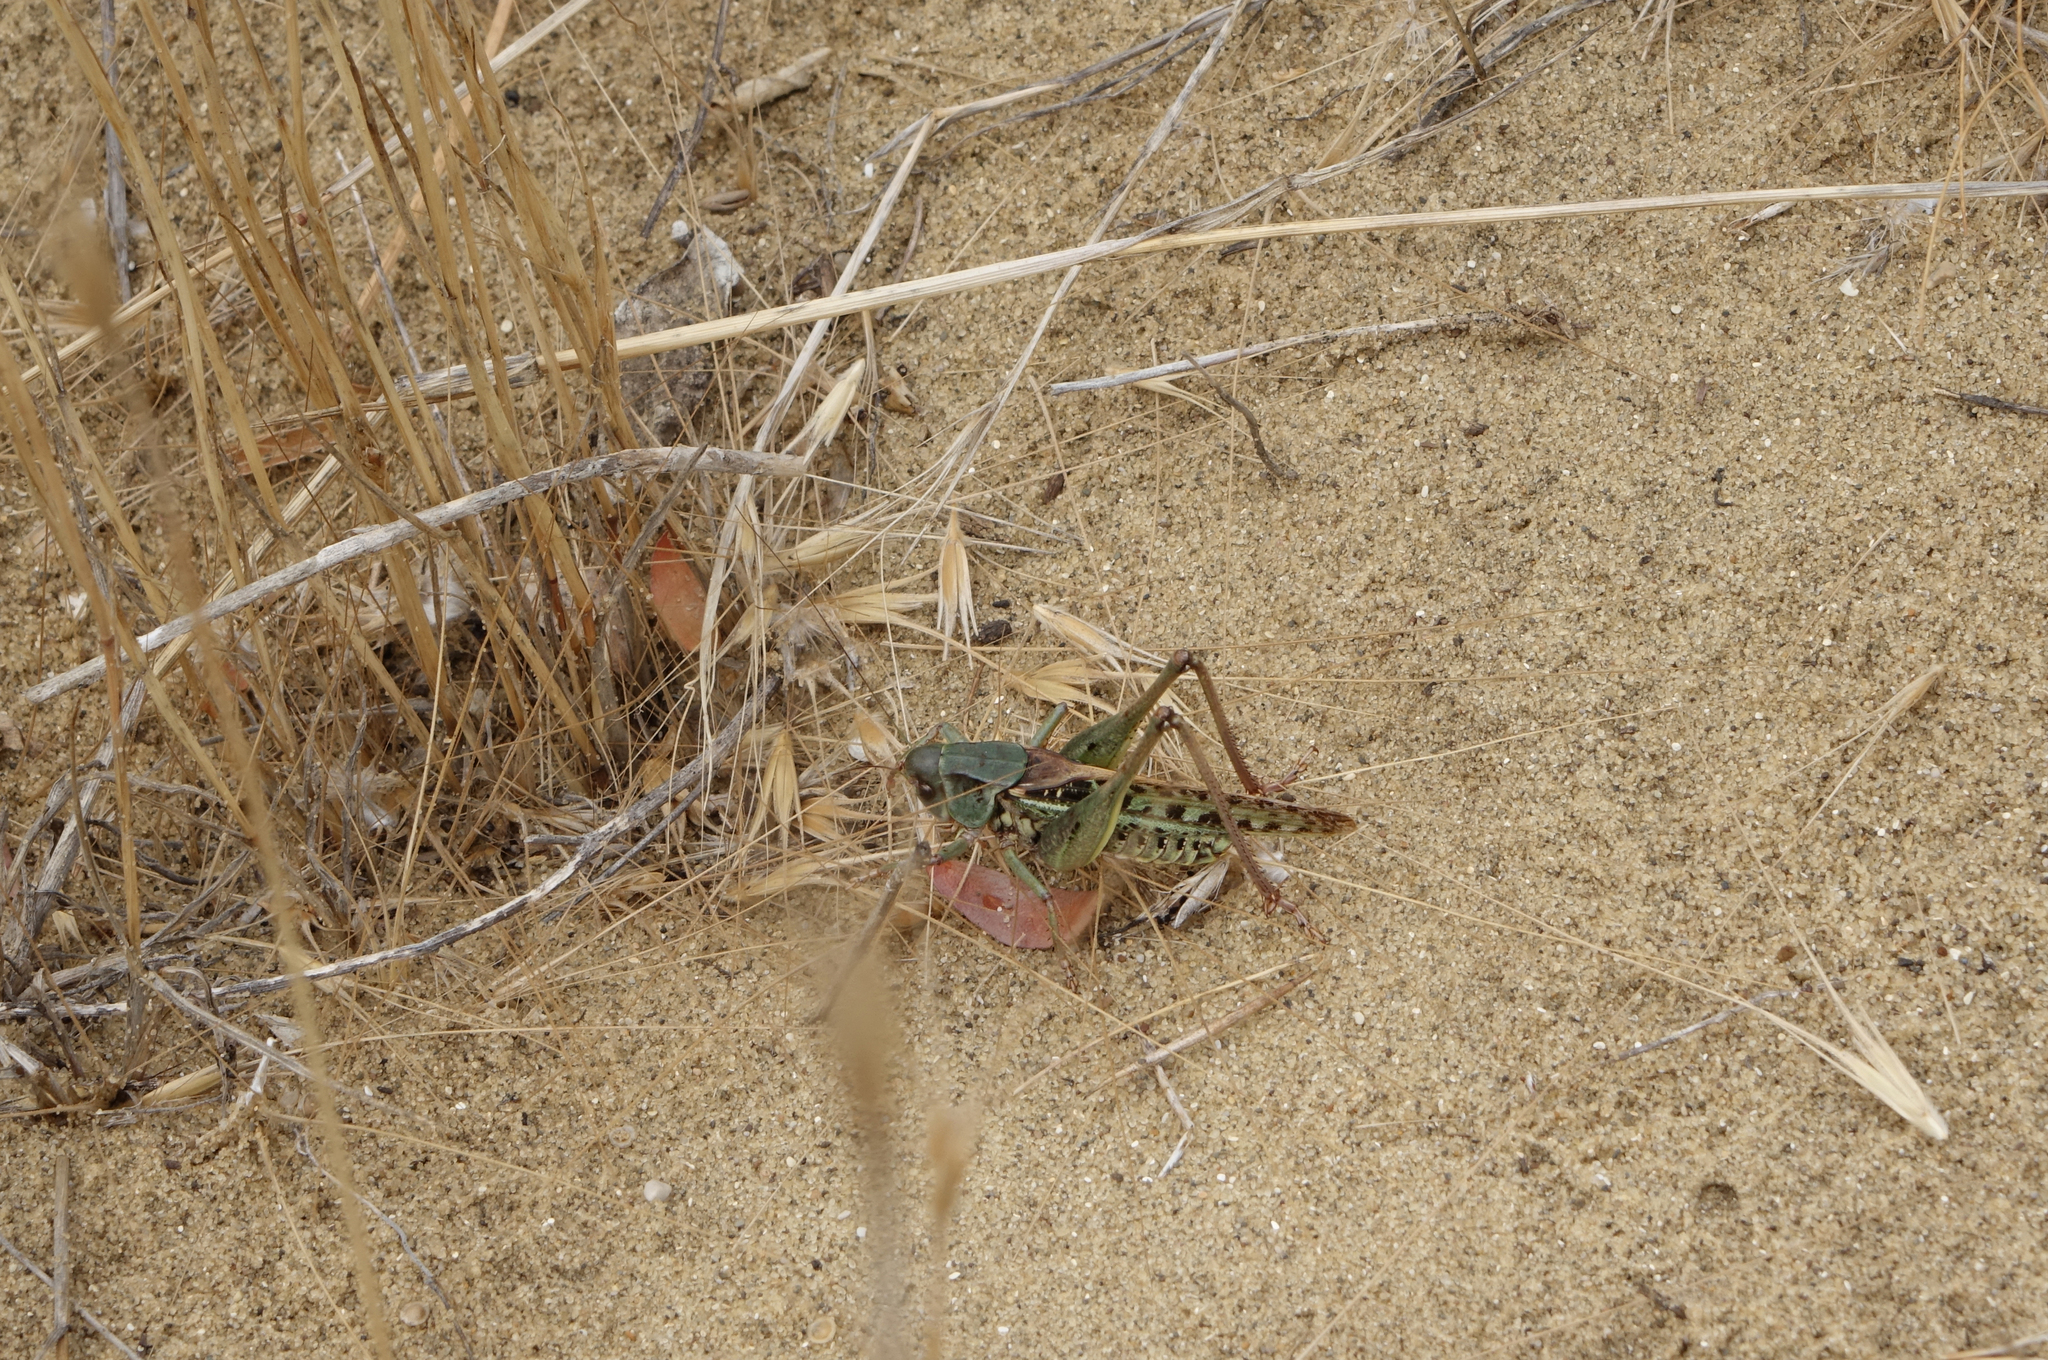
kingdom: Animalia
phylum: Arthropoda
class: Insecta
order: Orthoptera
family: Tettigoniidae
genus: Decticus
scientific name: Decticus verrucivorus
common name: Wart-biter
